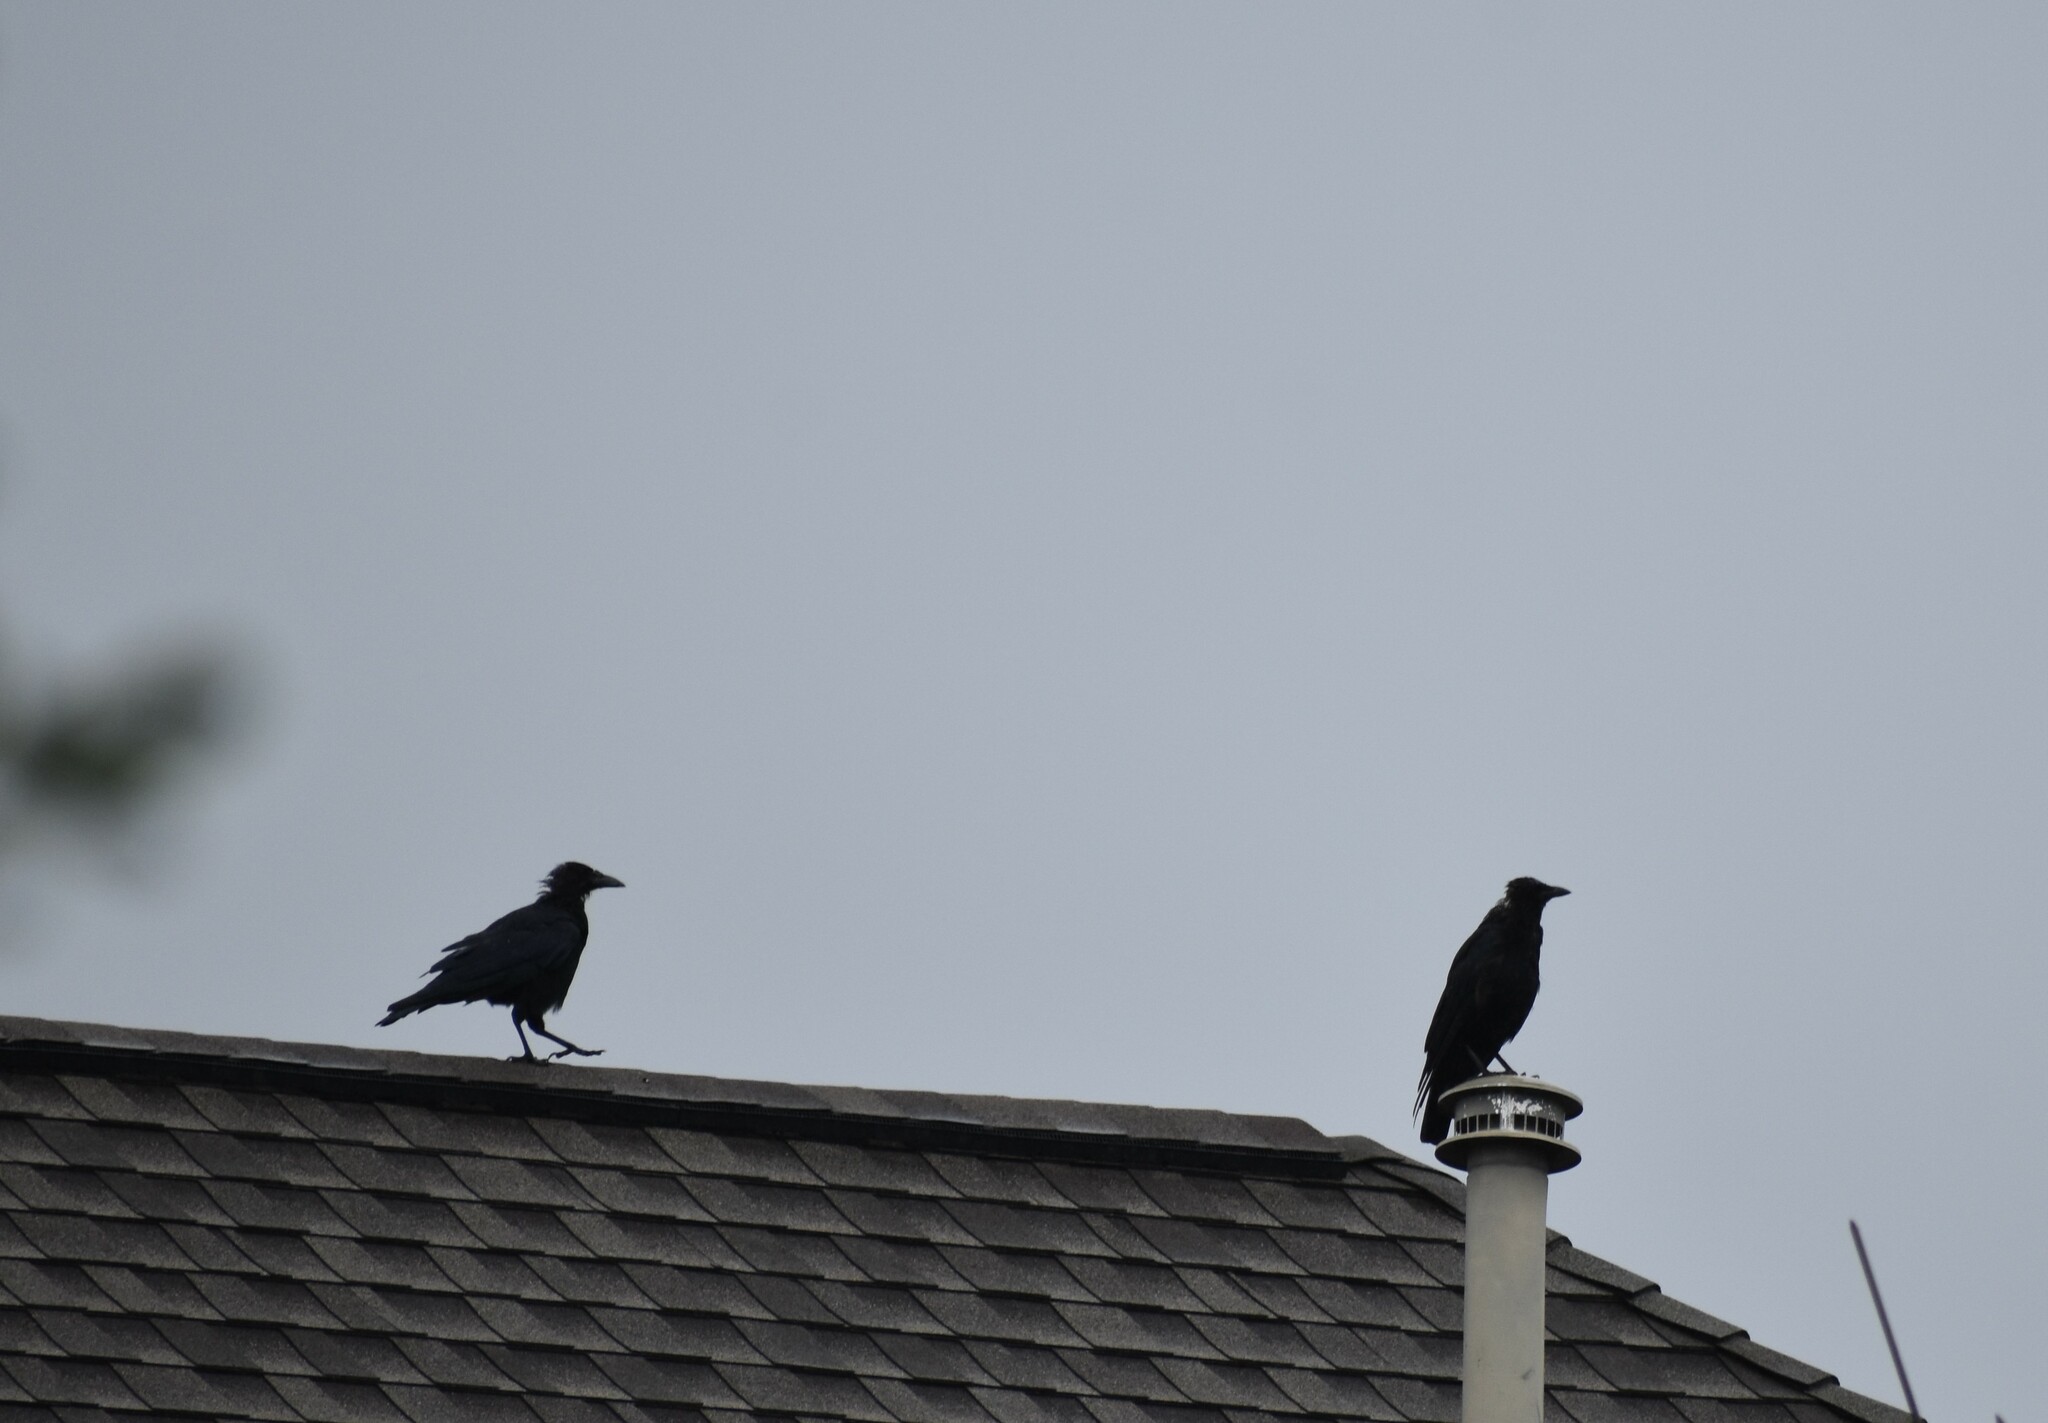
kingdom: Animalia
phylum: Chordata
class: Aves
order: Passeriformes
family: Corvidae
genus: Corvus
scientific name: Corvus brachyrhynchos
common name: American crow
